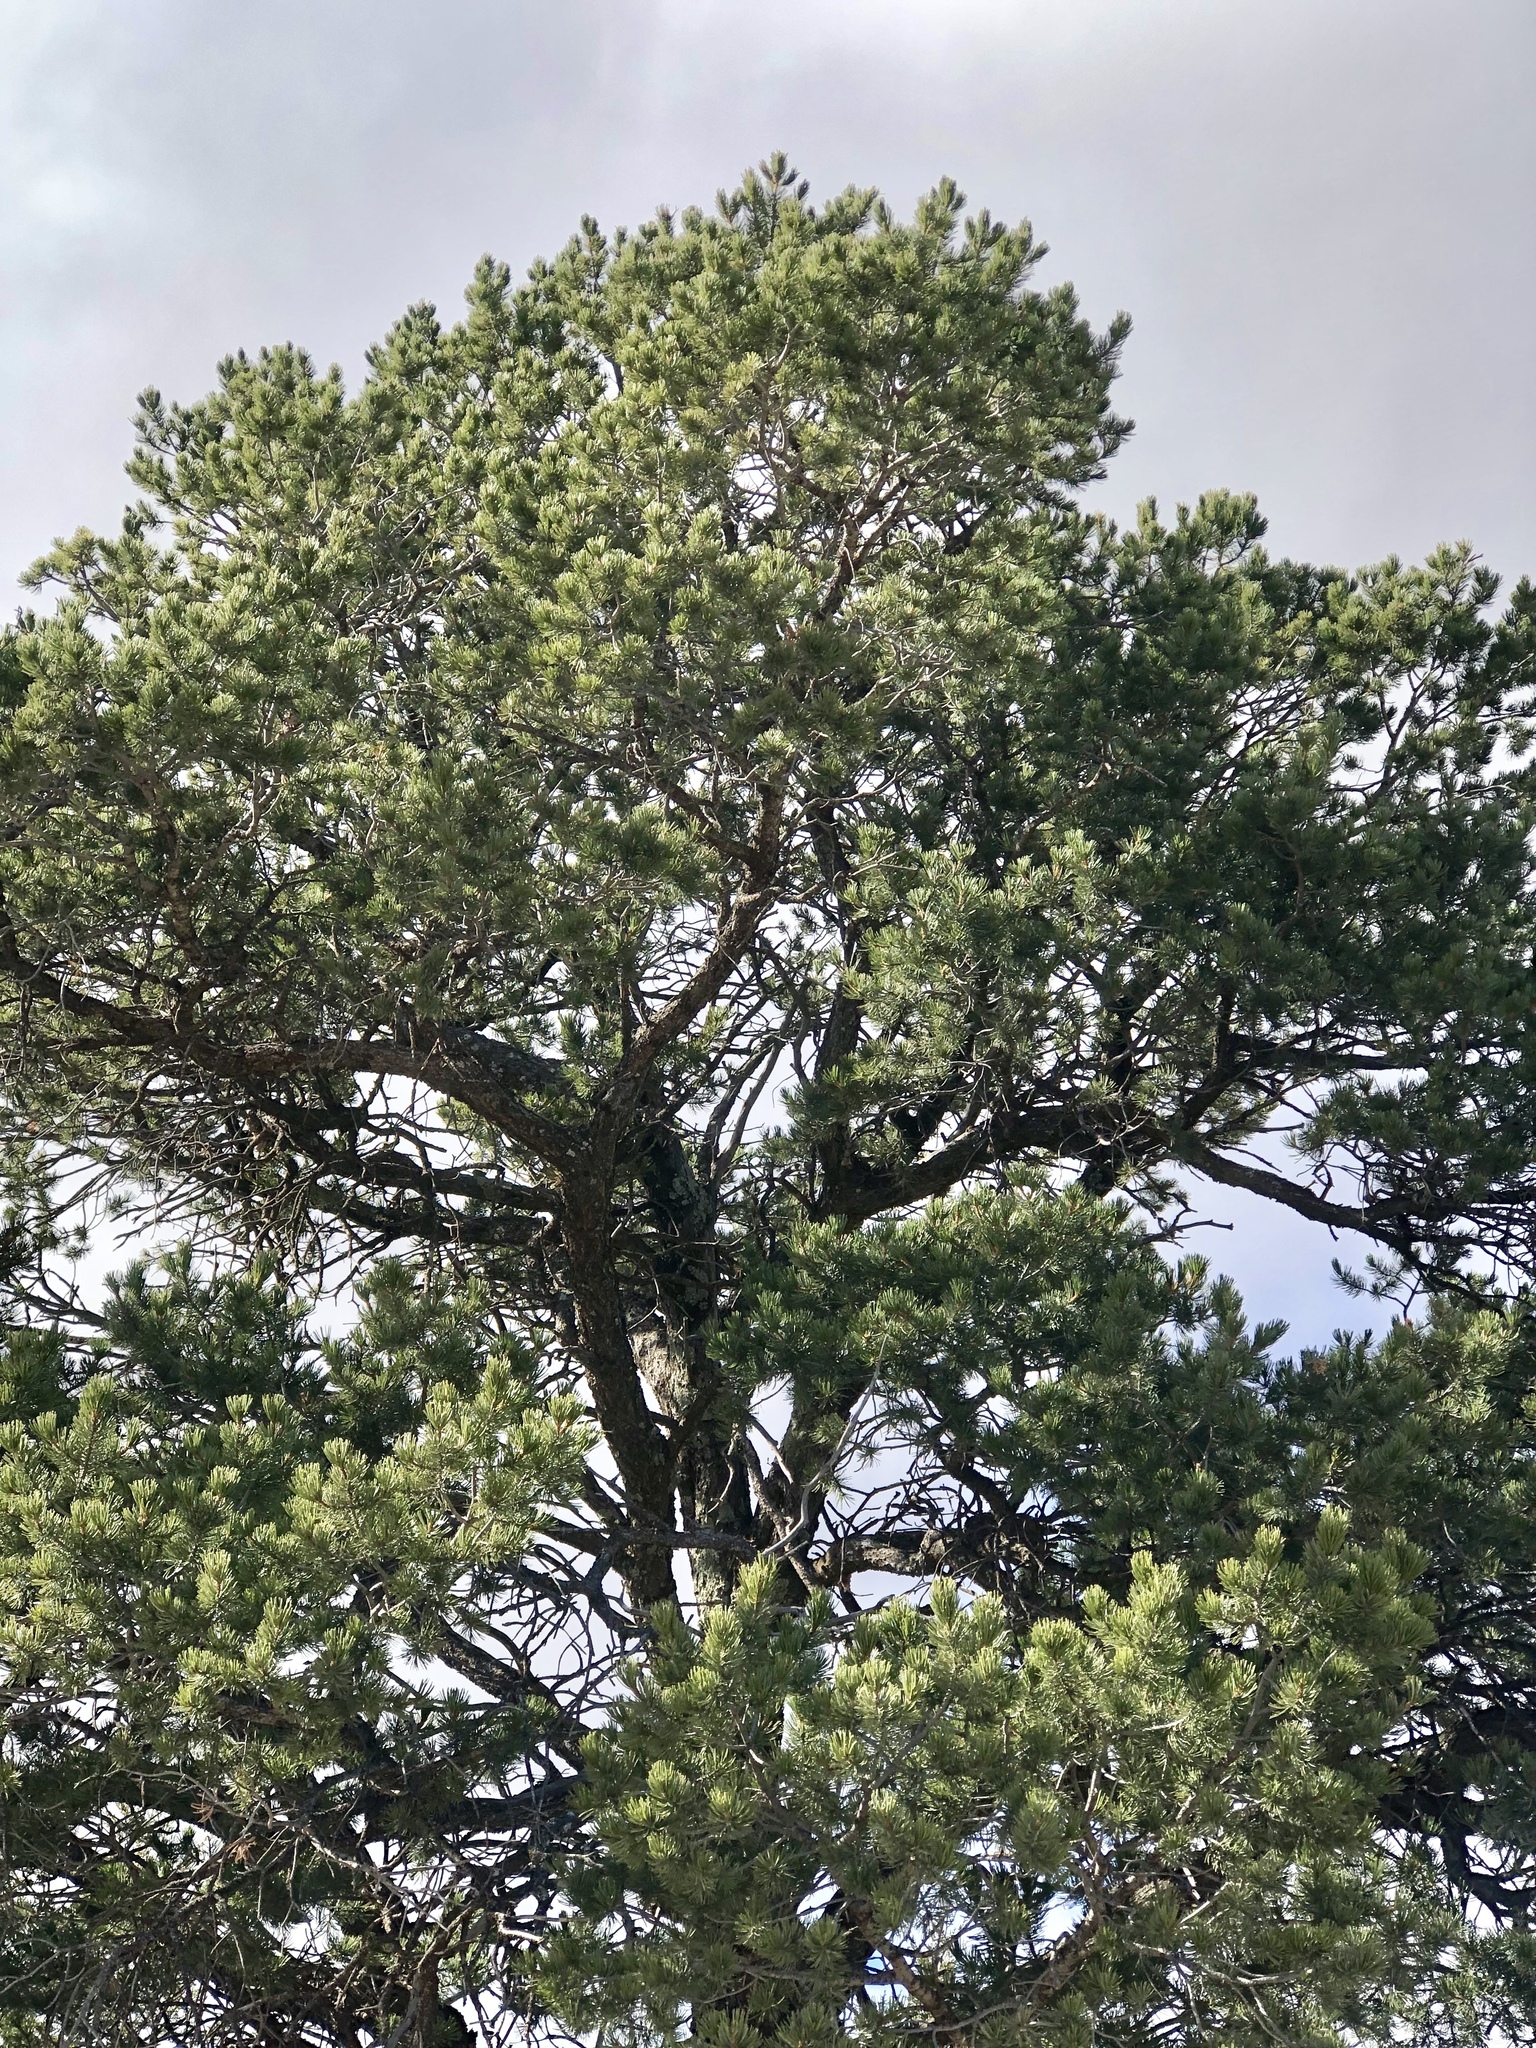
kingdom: Plantae
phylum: Tracheophyta
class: Pinopsida
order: Pinales
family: Pinaceae
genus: Pinus
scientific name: Pinus edulis
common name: Colorado pinyon
